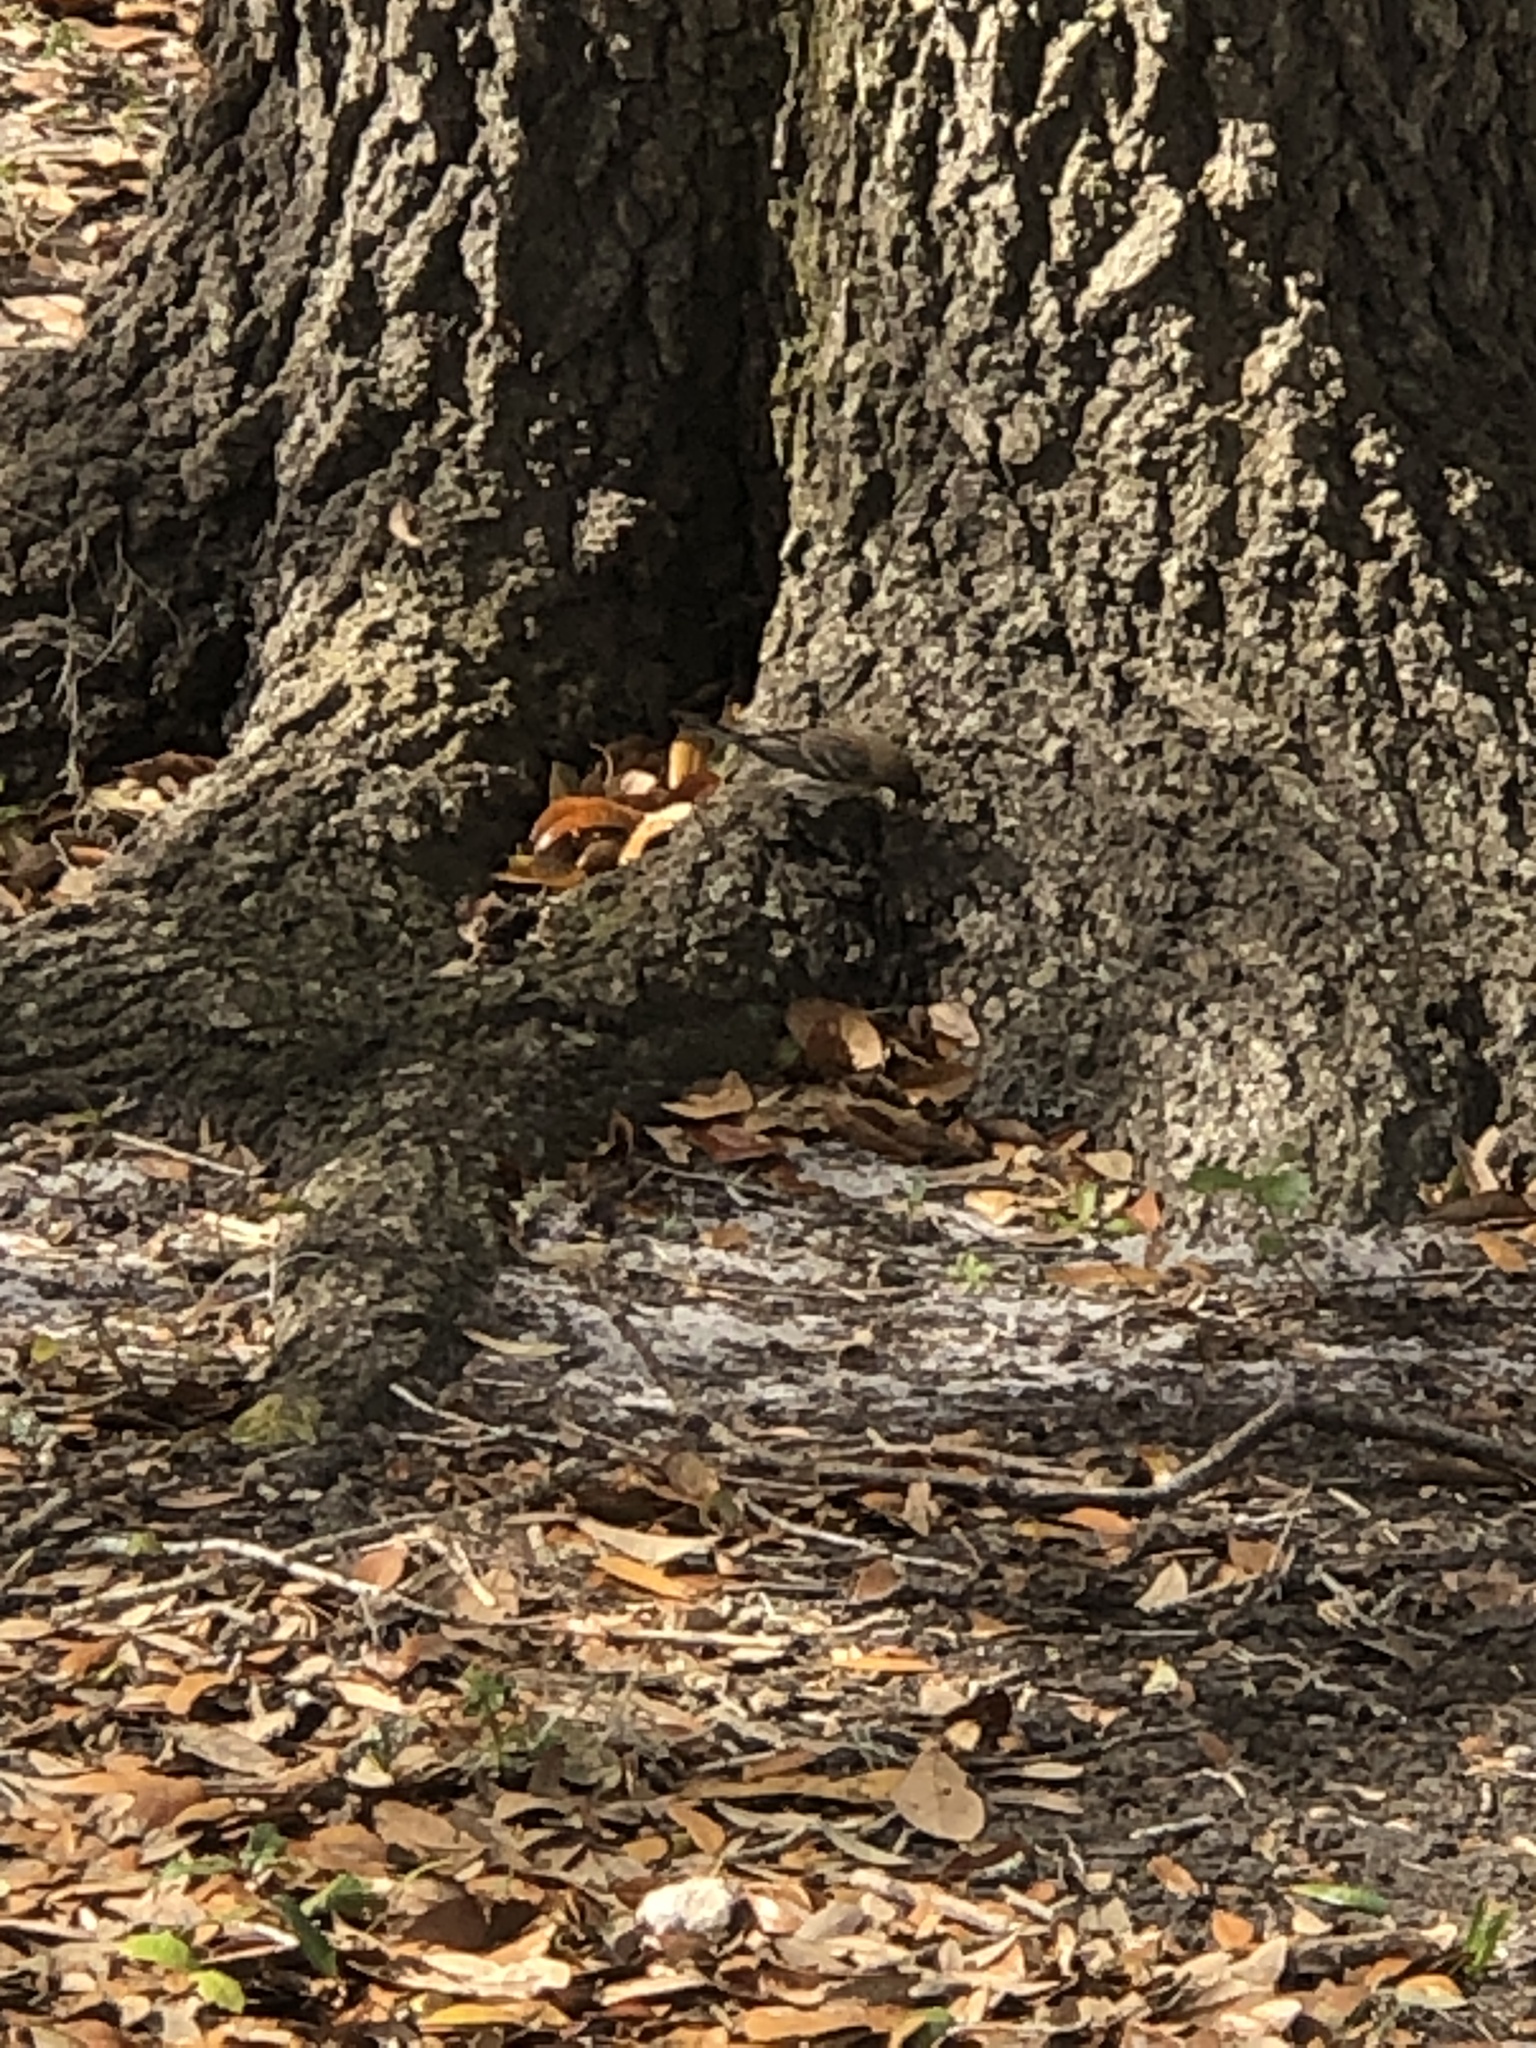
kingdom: Animalia
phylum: Chordata
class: Aves
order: Passeriformes
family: Parulidae
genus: Setophaga
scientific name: Setophaga coronata
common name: Myrtle warbler
